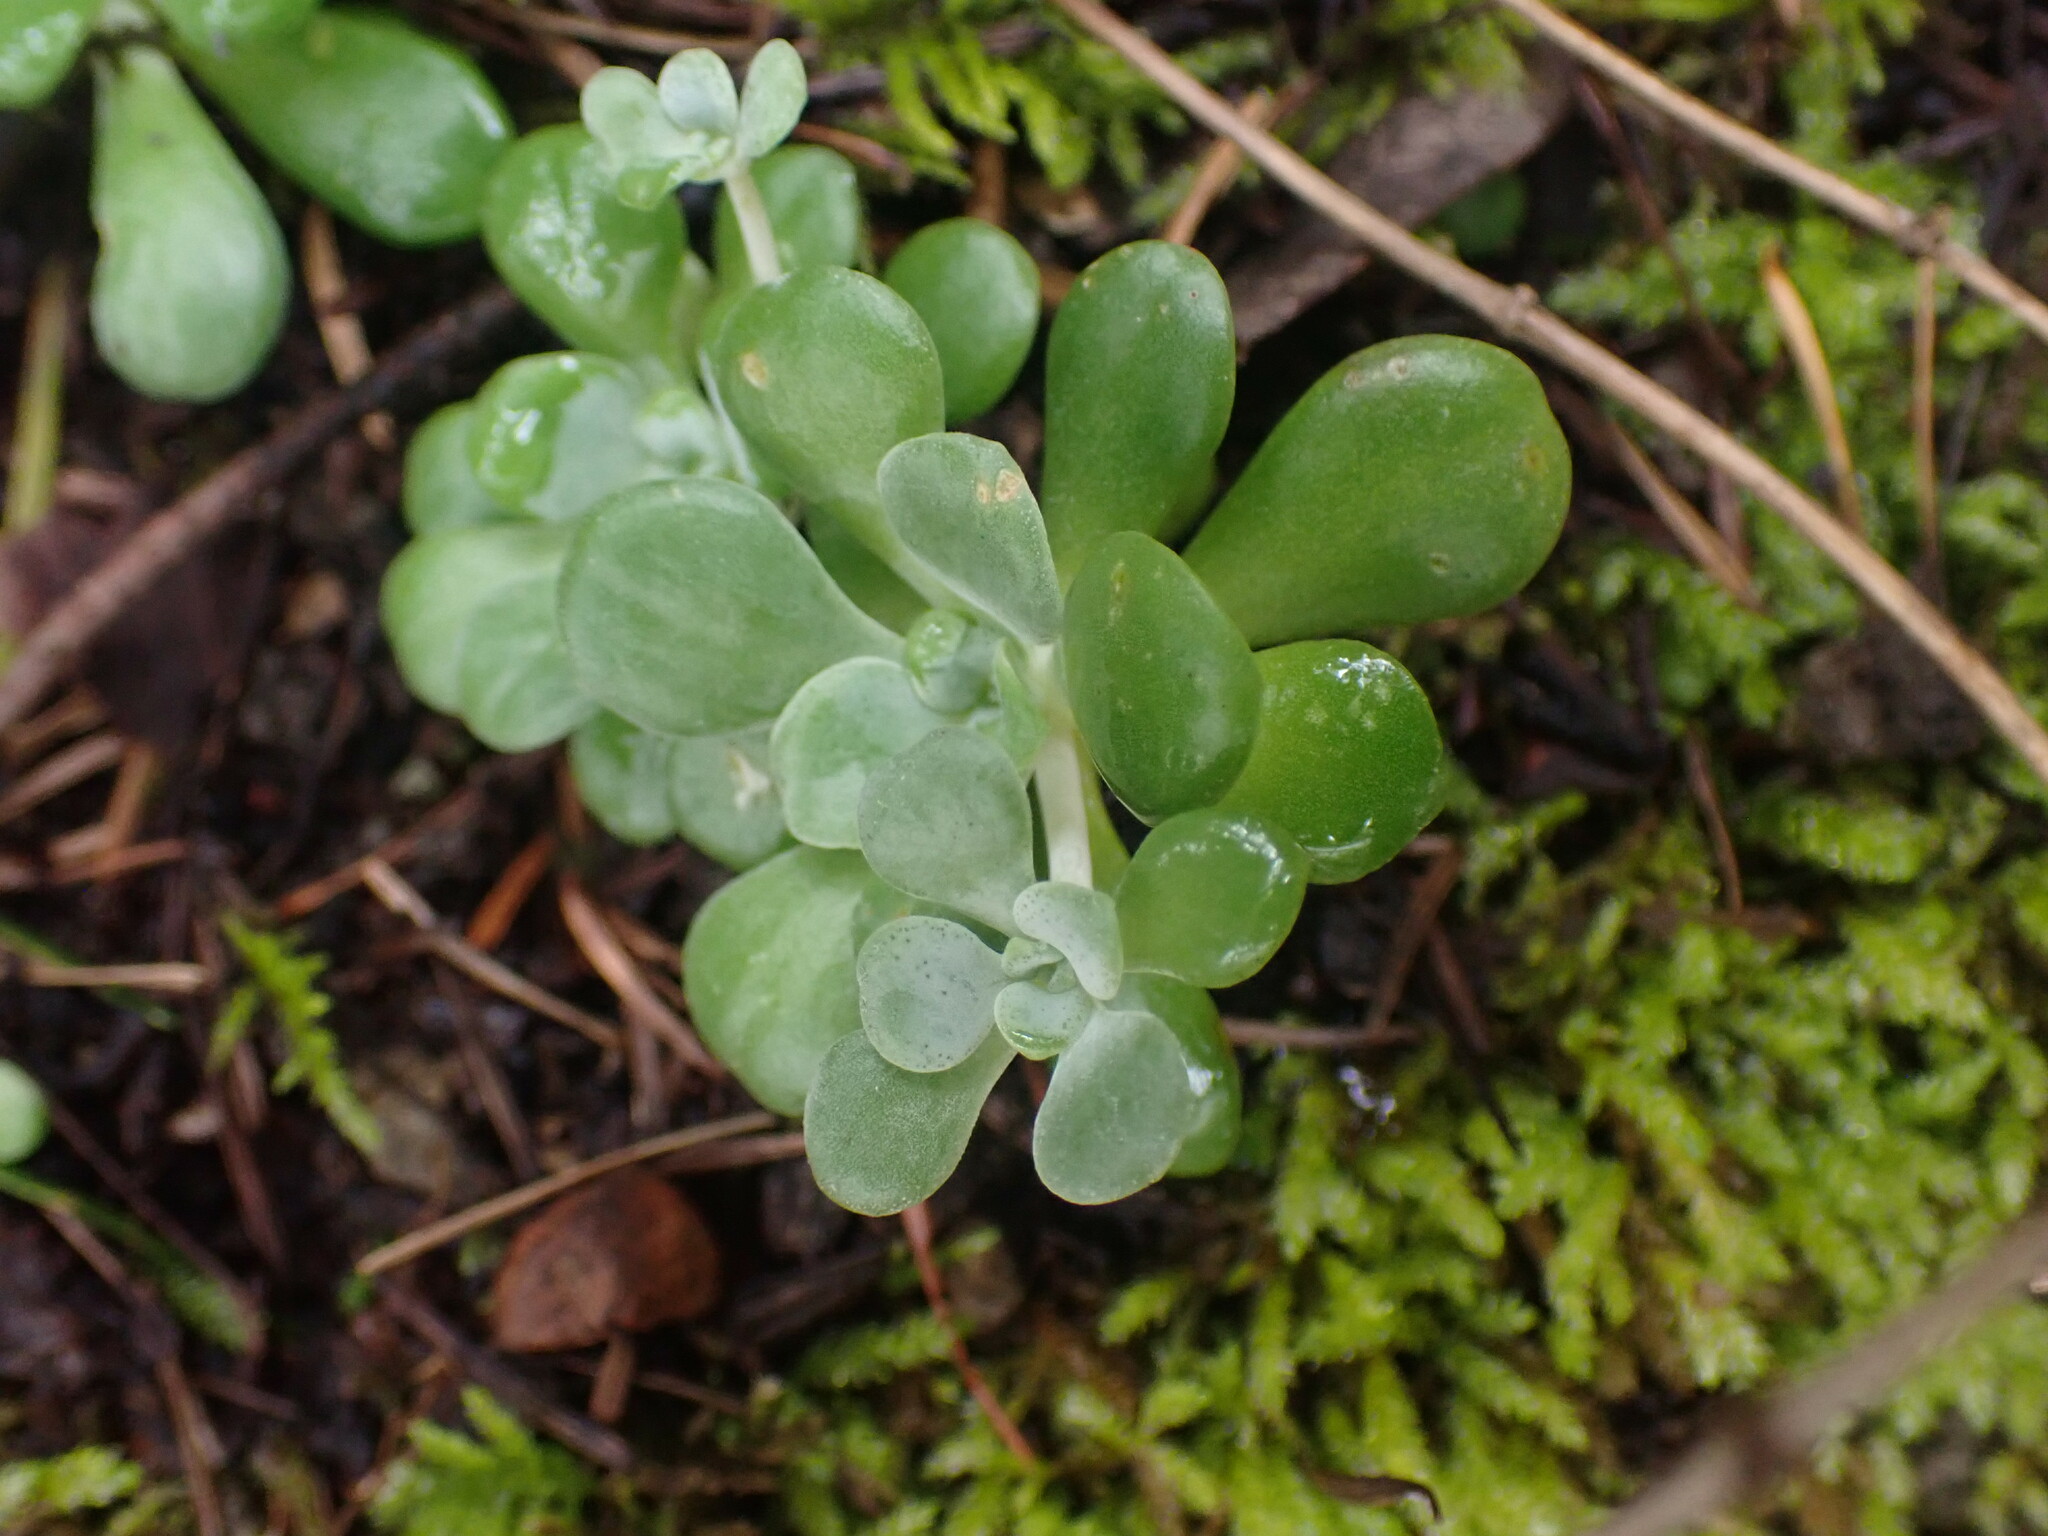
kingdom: Plantae
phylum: Tracheophyta
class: Magnoliopsida
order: Saxifragales
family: Crassulaceae
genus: Sedum
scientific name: Sedum spathulifolium
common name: Colorado stonecrop
